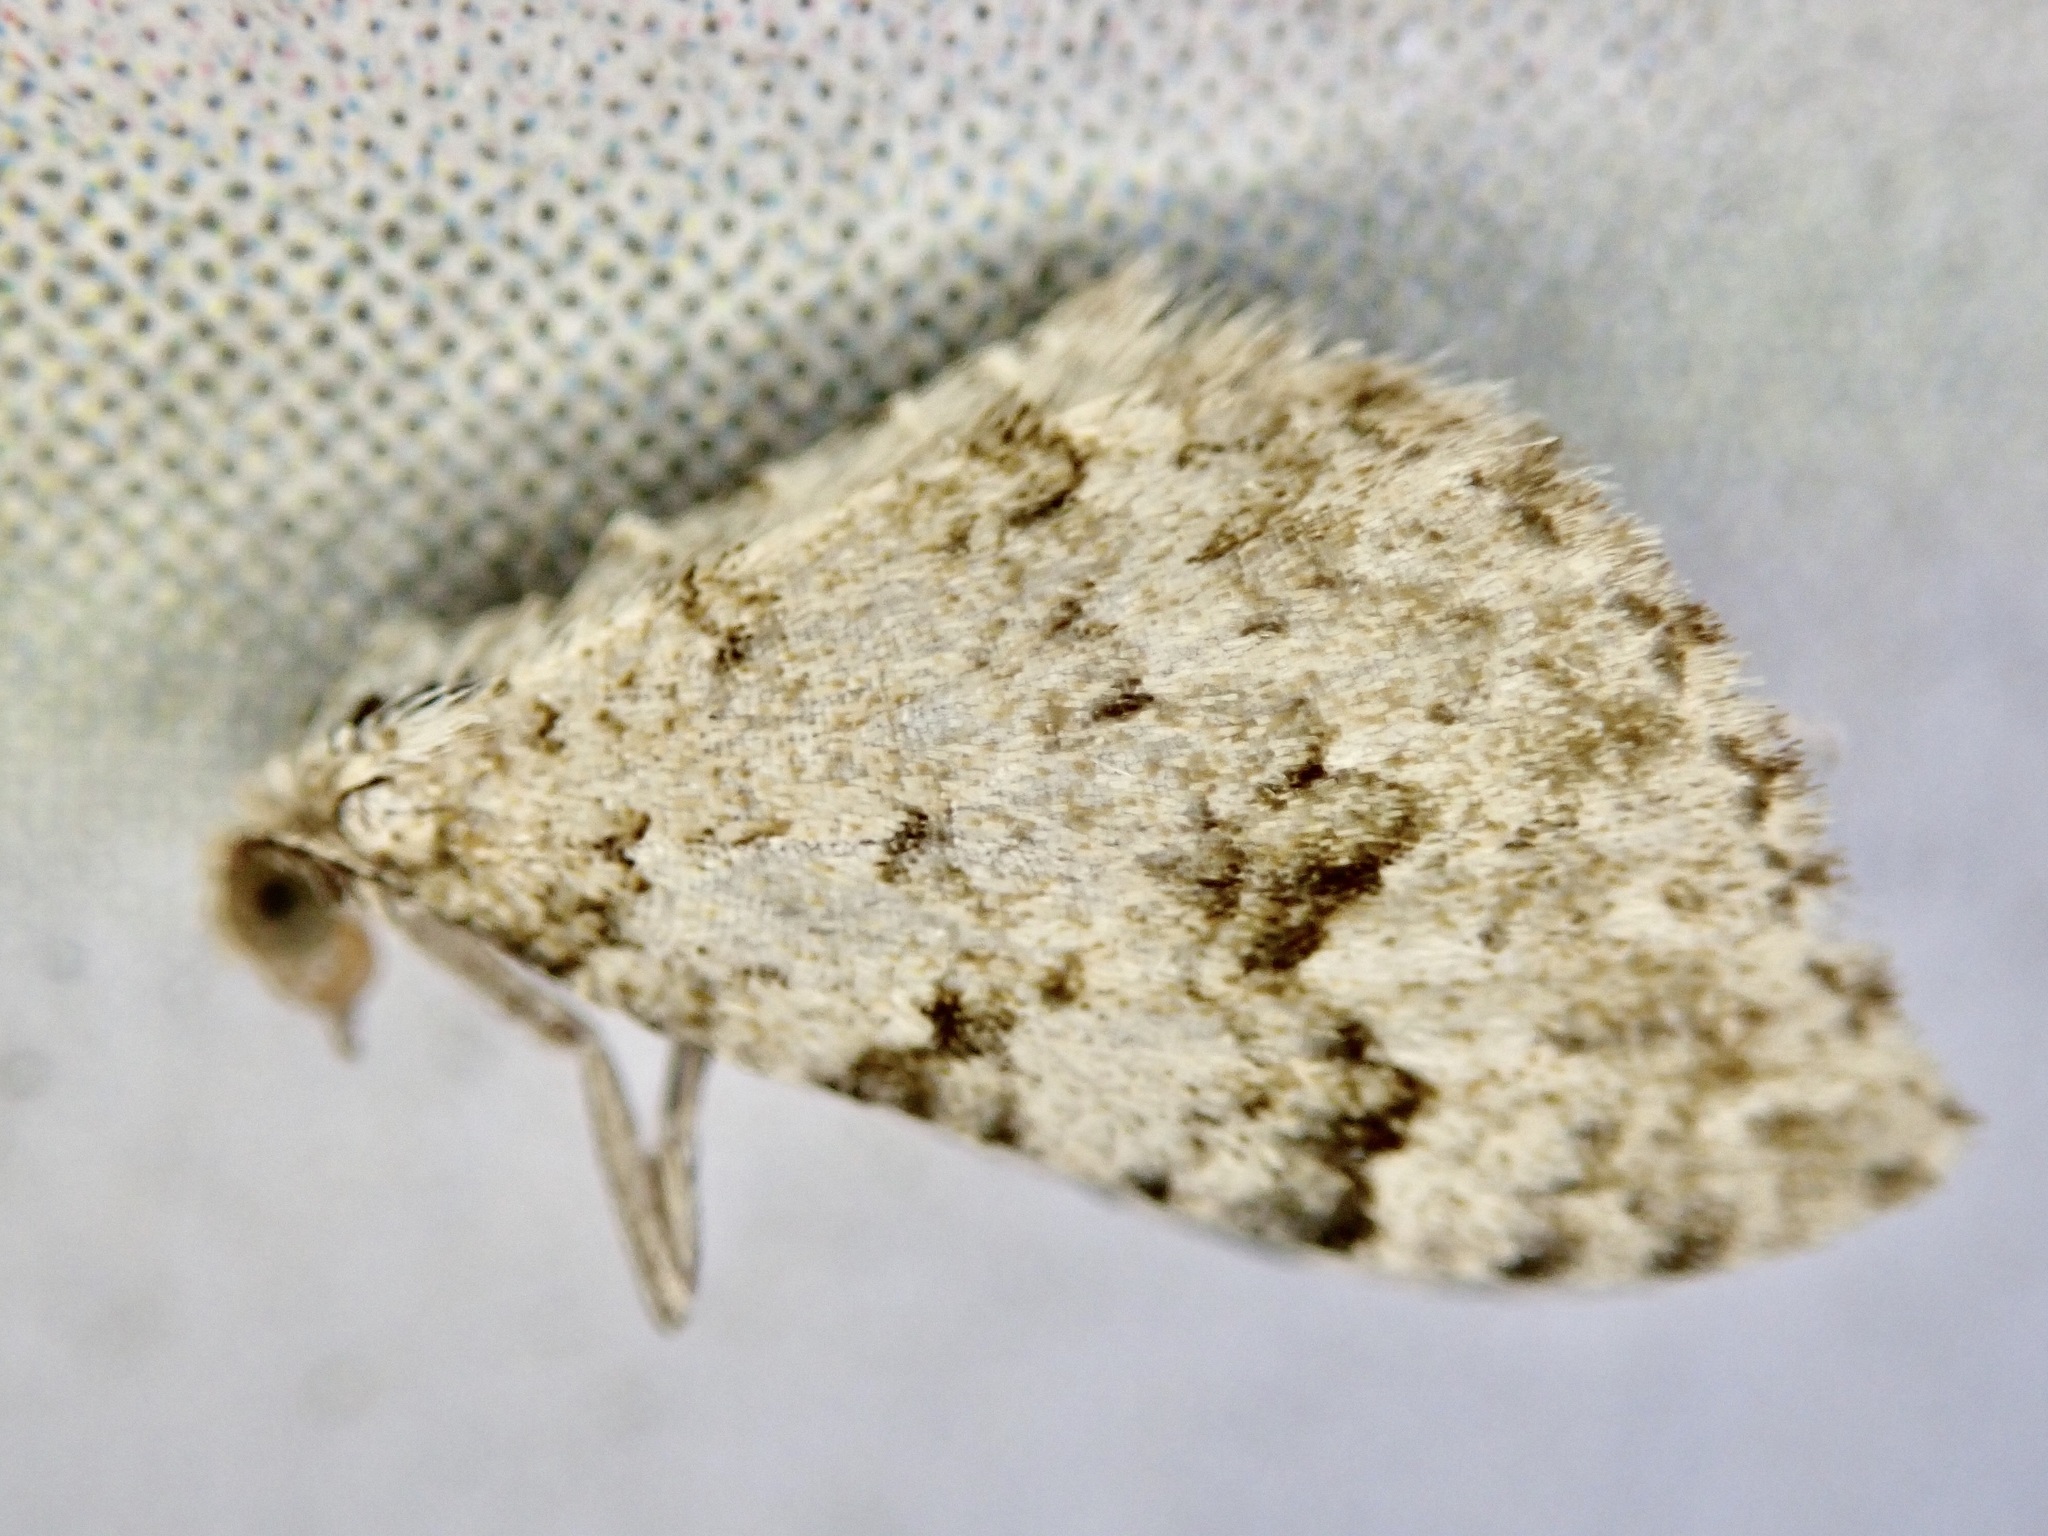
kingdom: Animalia
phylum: Arthropoda
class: Insecta
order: Lepidoptera
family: Geometridae
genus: Helastia
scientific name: Helastia cinerearia
